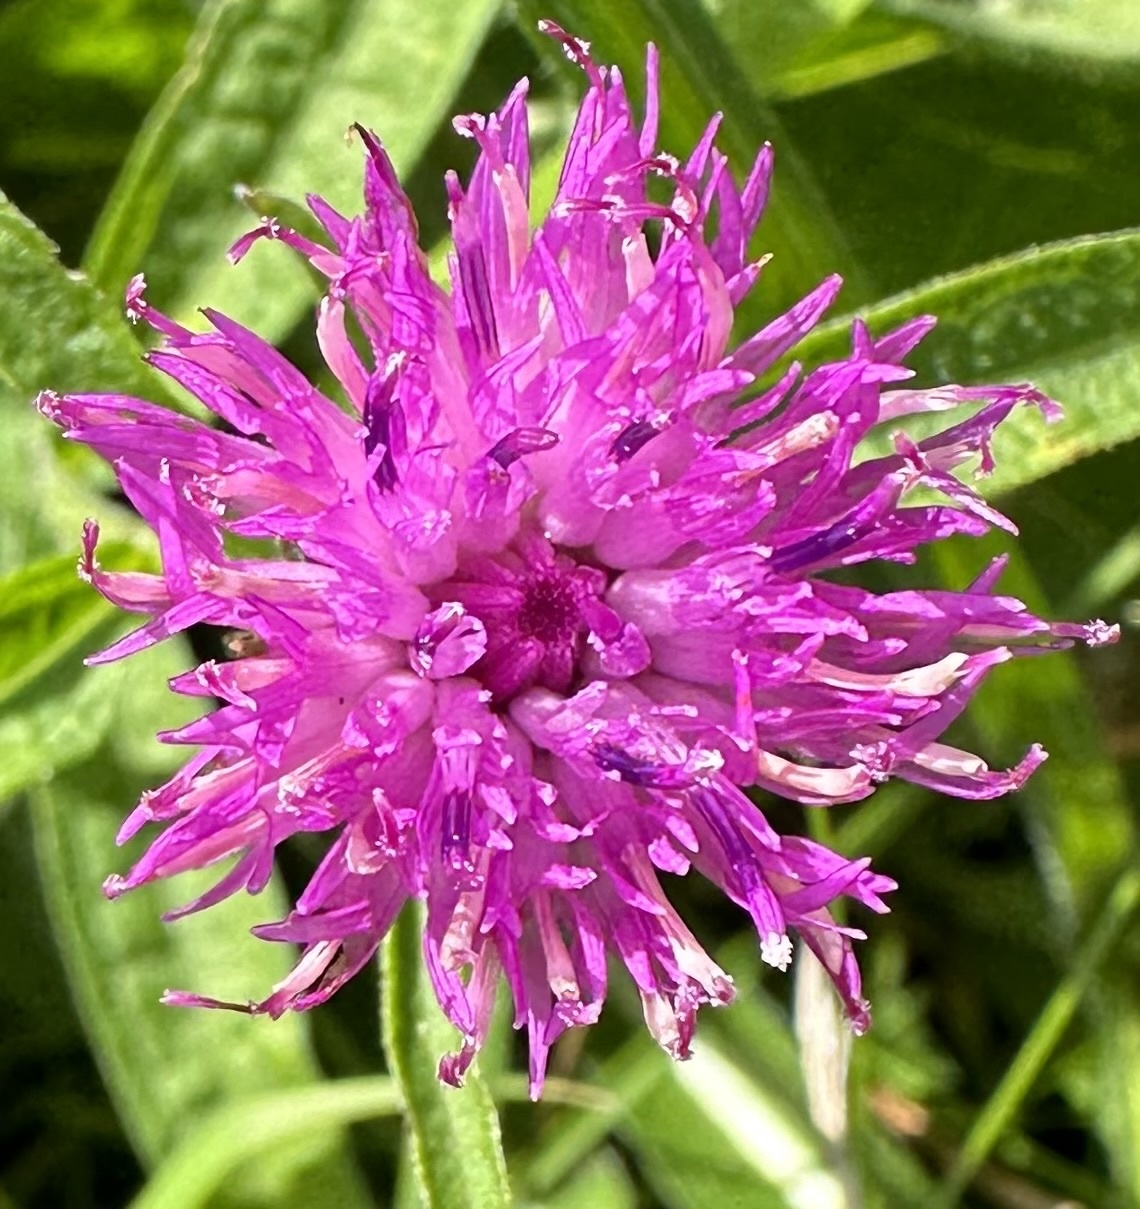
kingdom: Plantae
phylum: Tracheophyta
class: Magnoliopsida
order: Asterales
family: Asteraceae
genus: Centaurea
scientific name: Centaurea nigra
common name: Lesser knapweed
